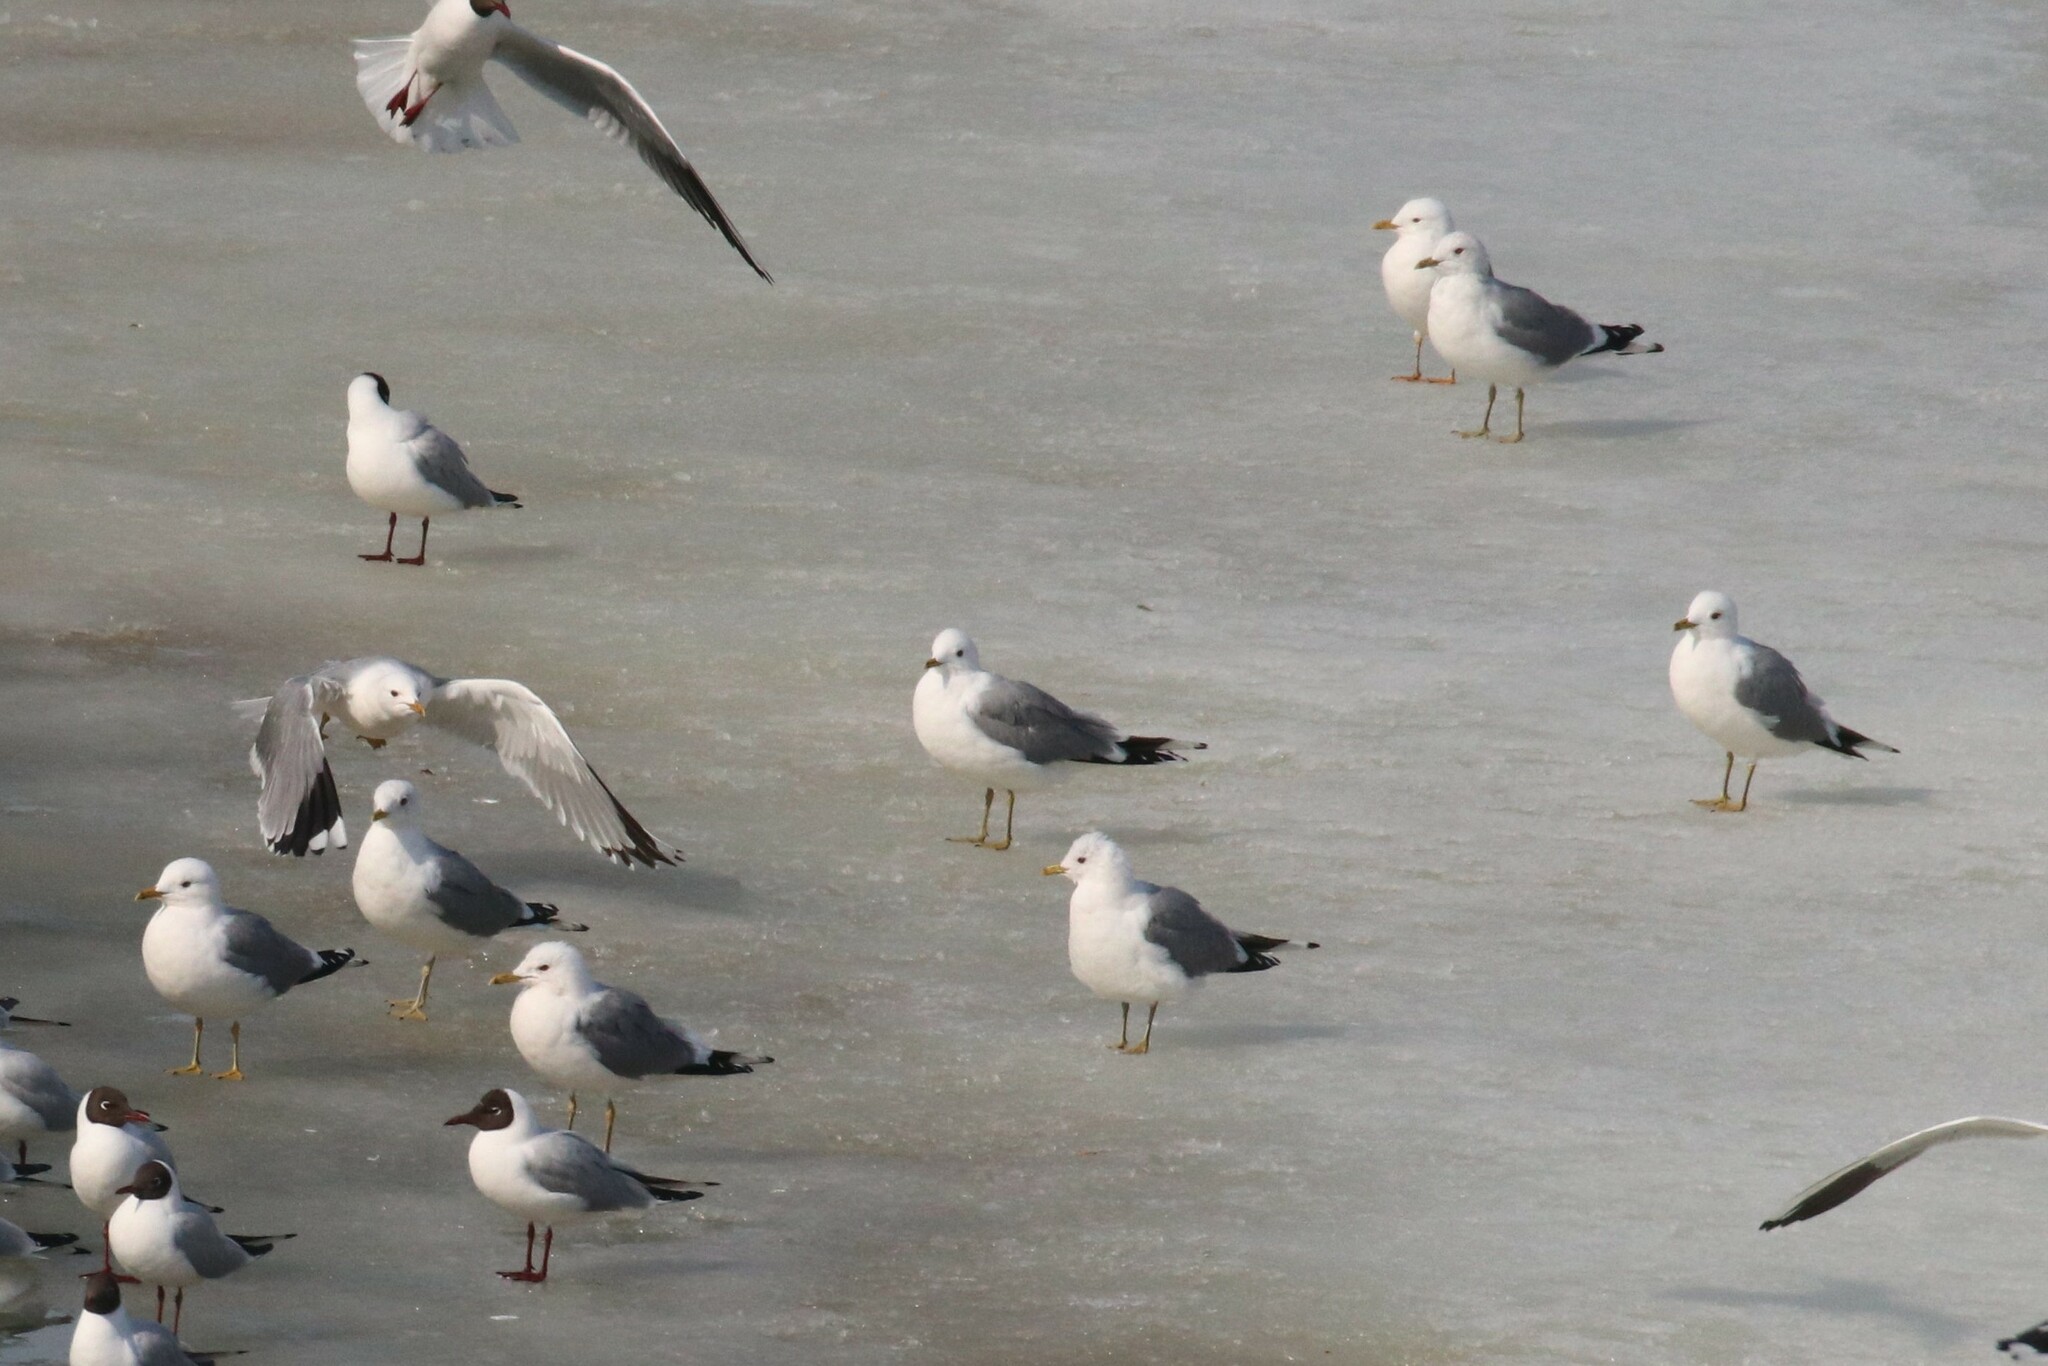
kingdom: Animalia
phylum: Chordata
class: Aves
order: Charadriiformes
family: Laridae
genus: Larus
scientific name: Larus canus
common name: Mew gull
